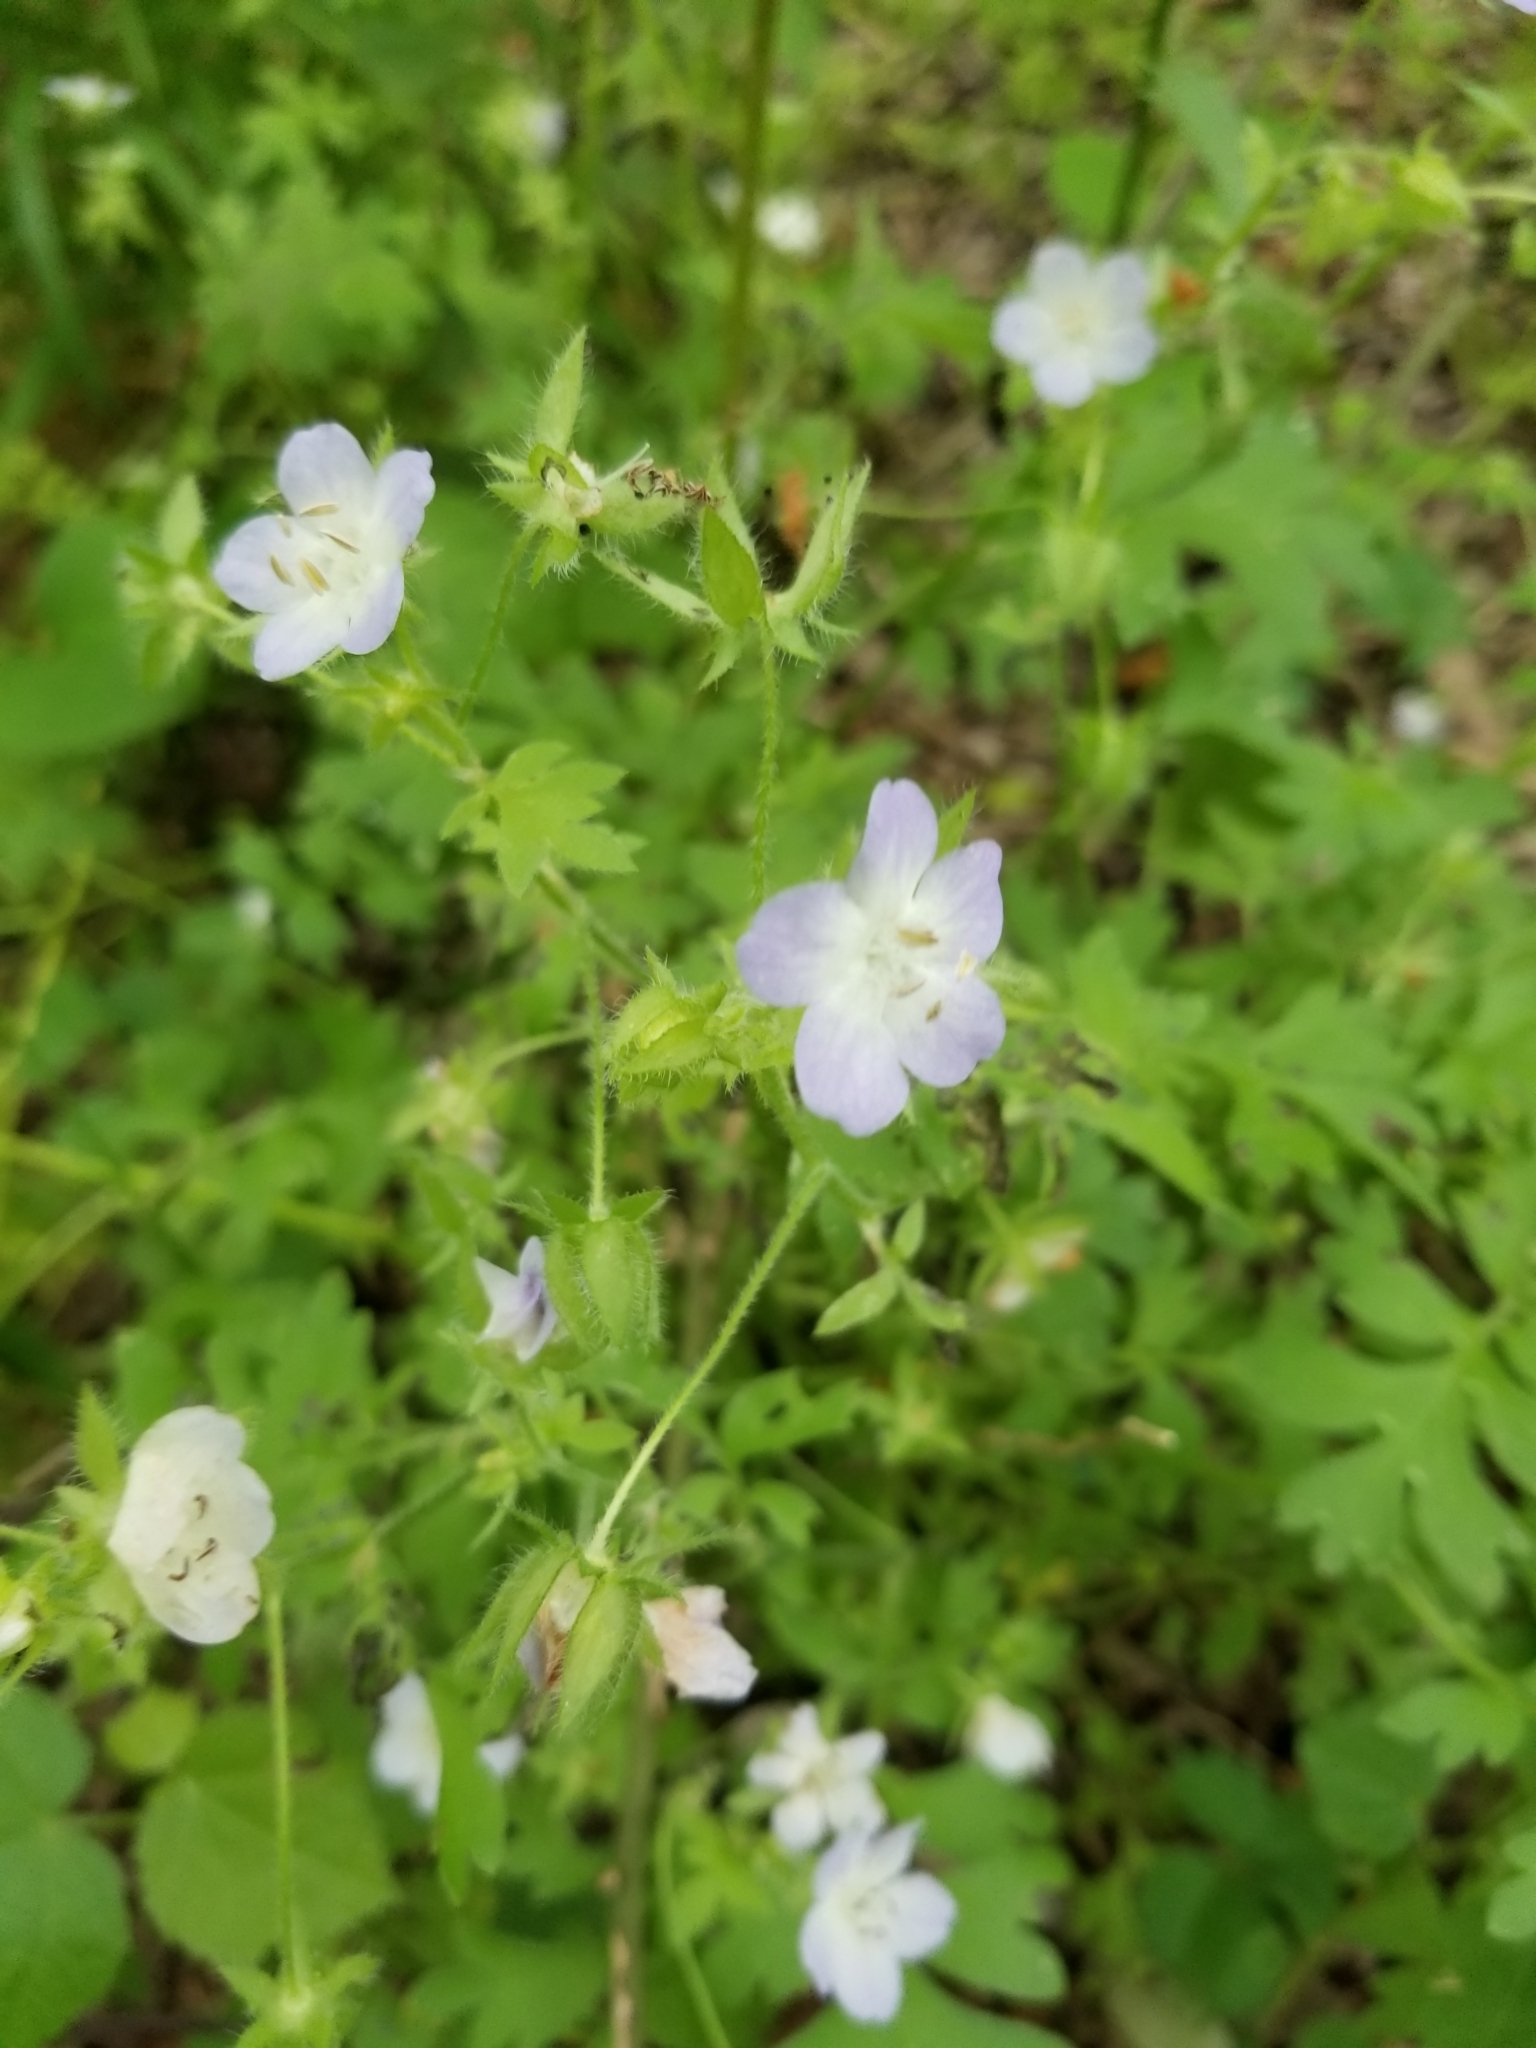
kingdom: Plantae
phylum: Tracheophyta
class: Magnoliopsida
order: Boraginales
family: Hydrophyllaceae
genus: Nemophila
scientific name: Nemophila phacelioides
